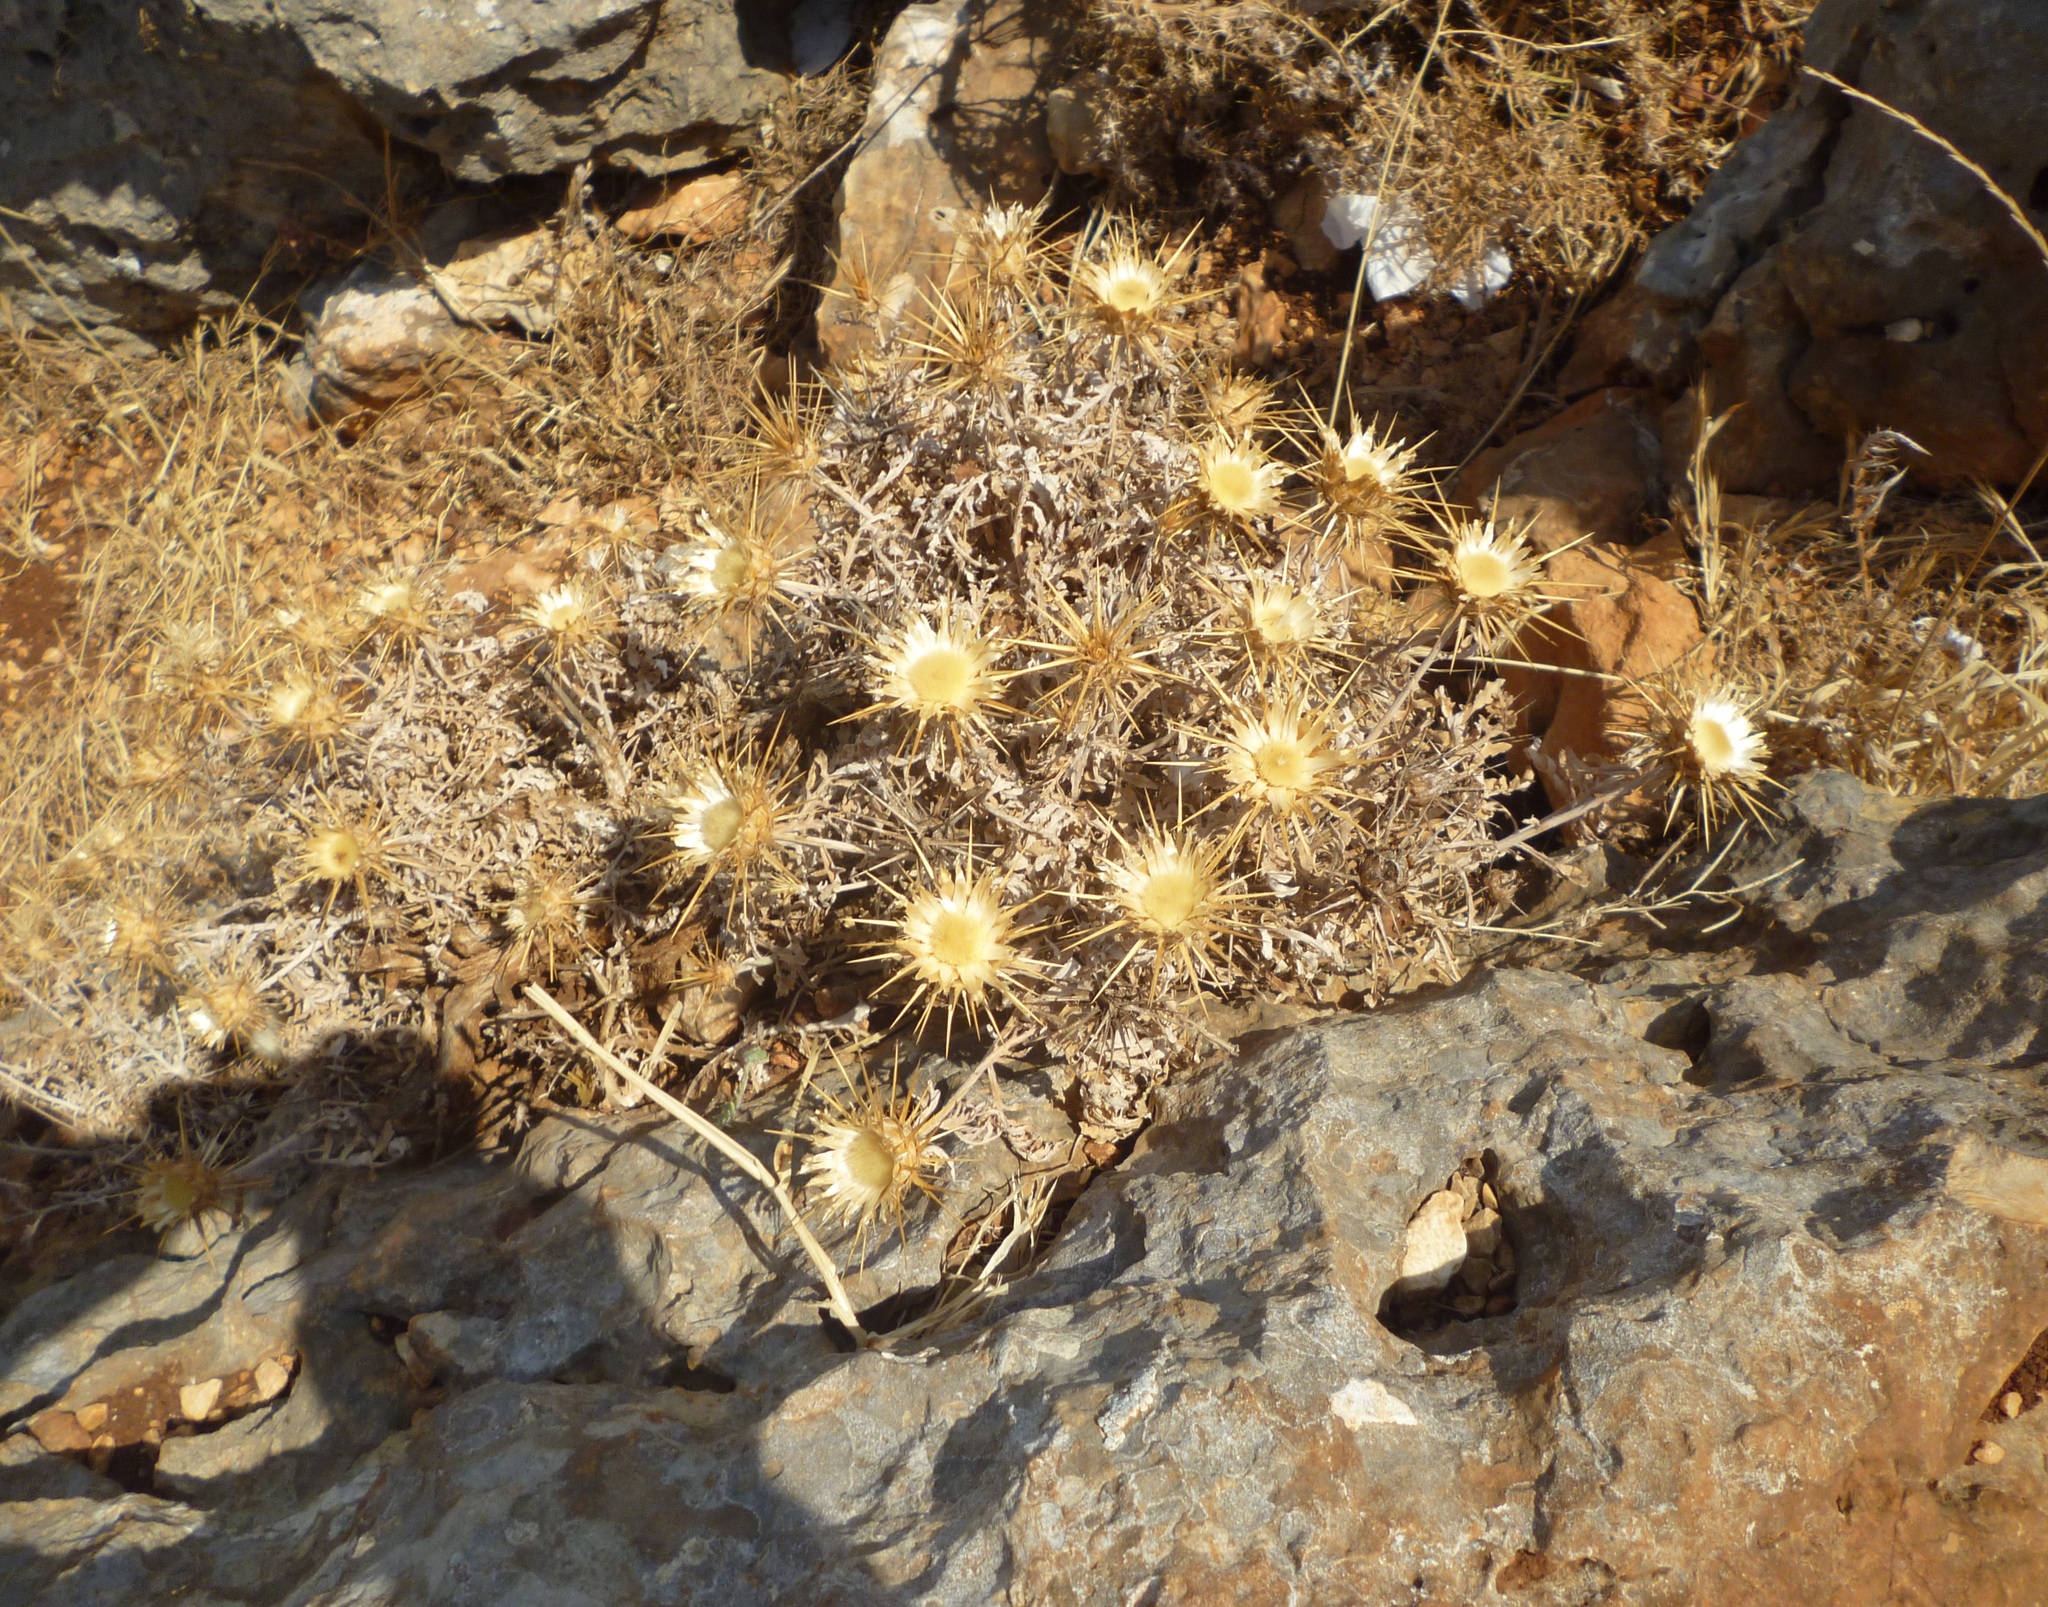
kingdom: Plantae
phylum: Tracheophyta
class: Magnoliopsida
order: Asterales
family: Asteraceae
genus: Carlina
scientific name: Carlina curetum
